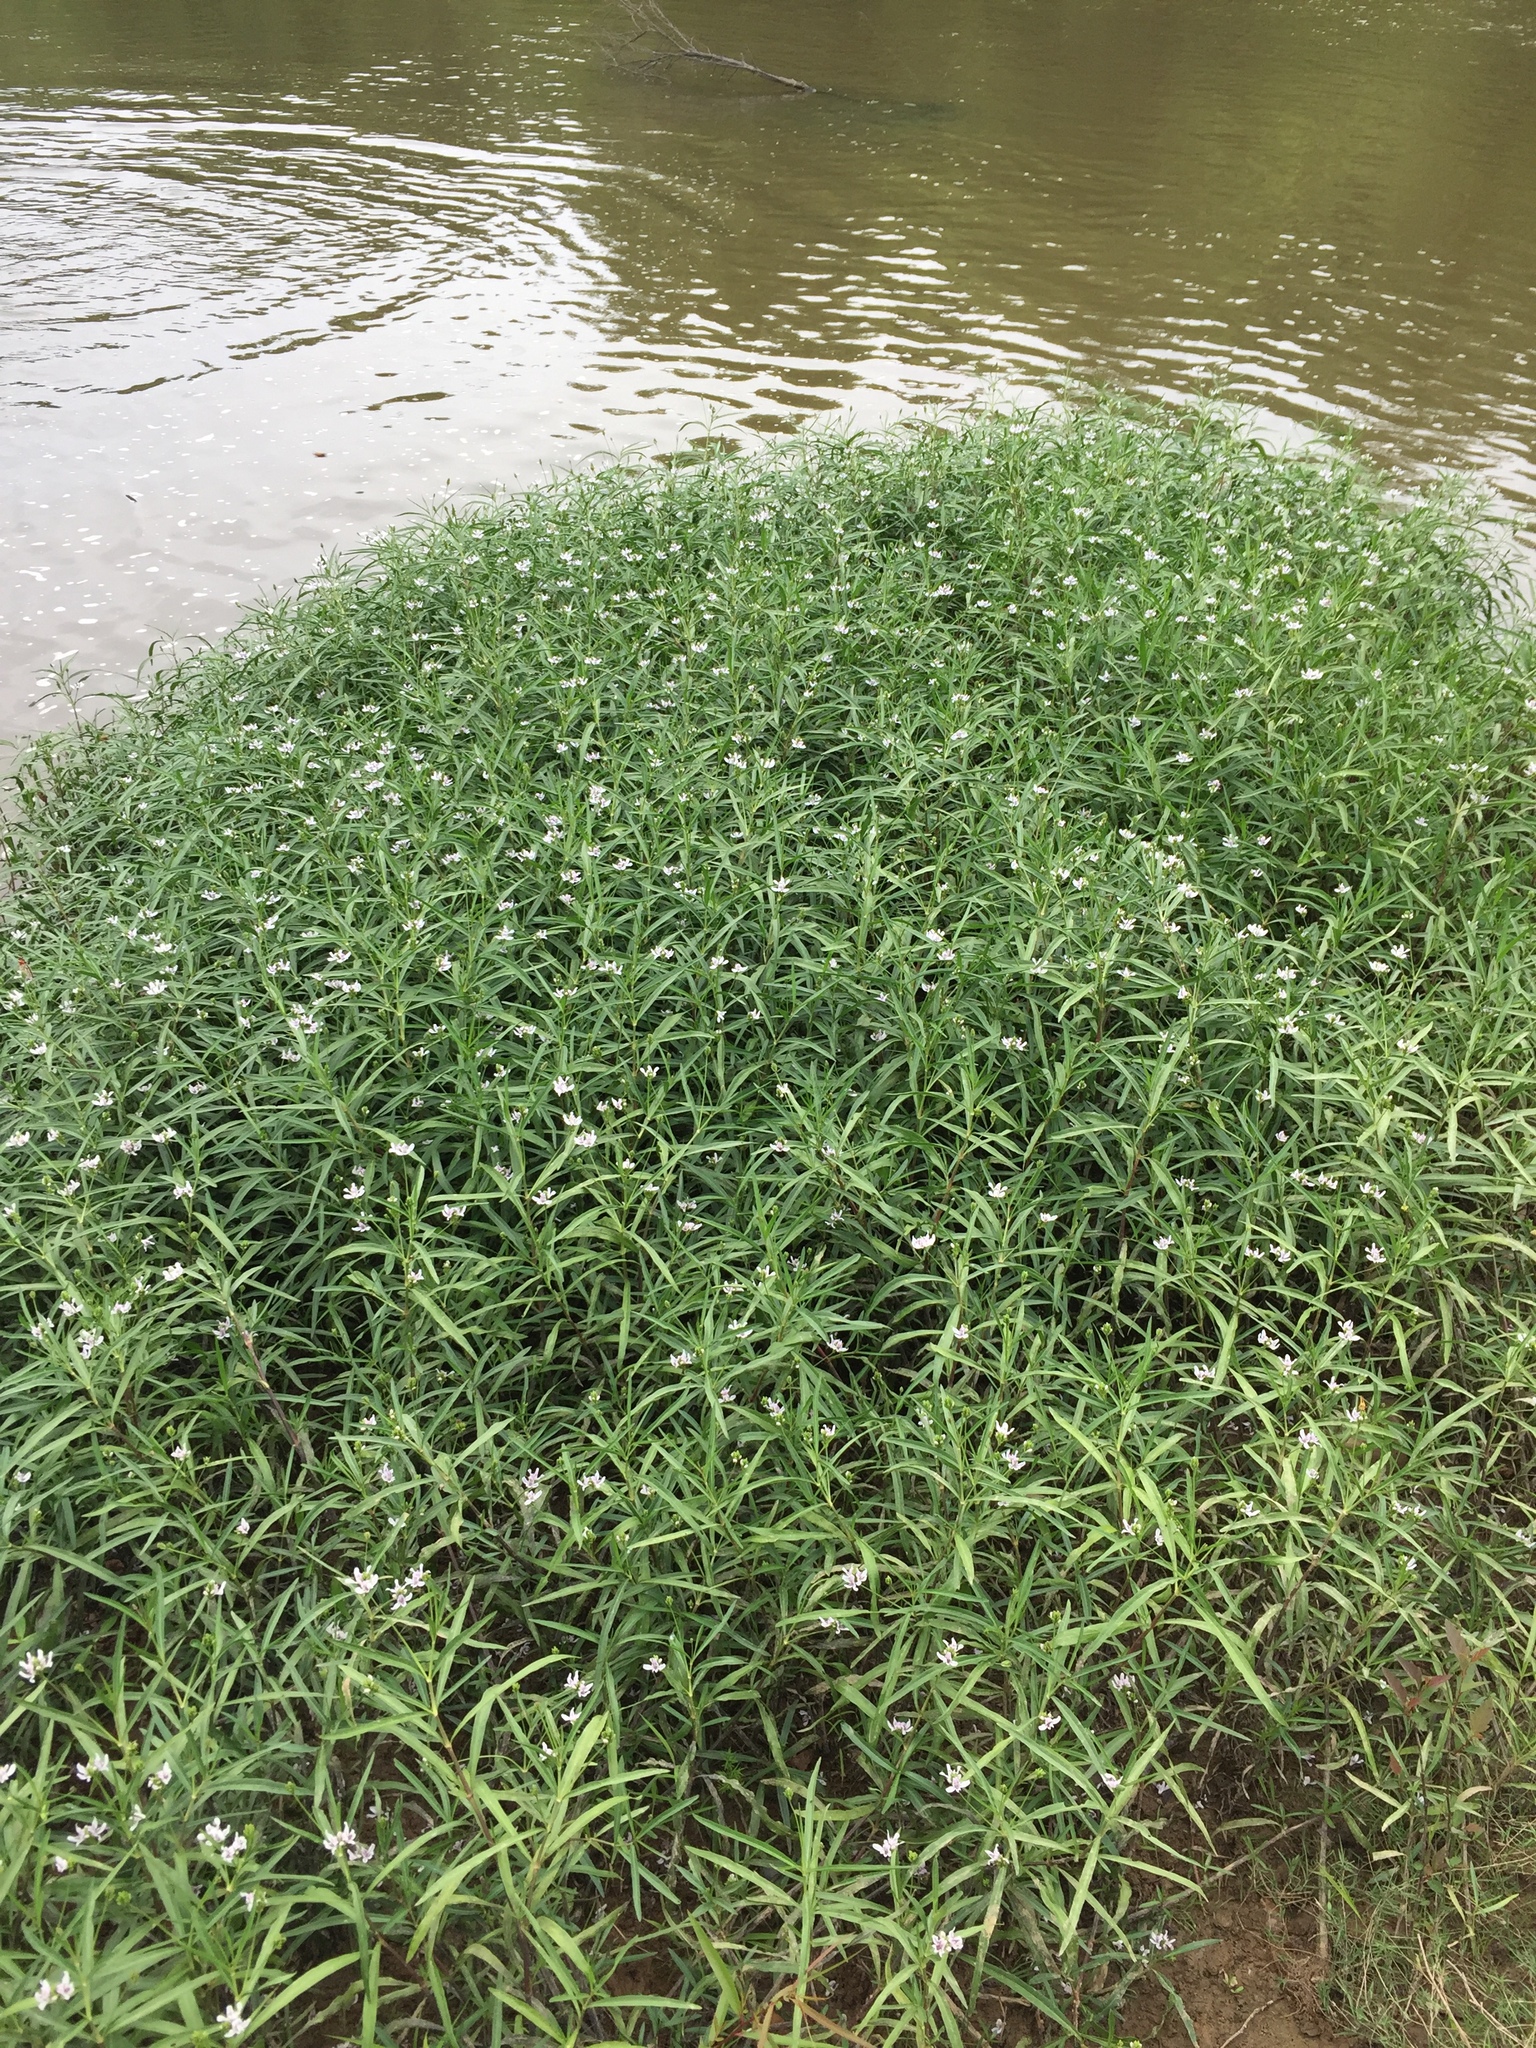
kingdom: Plantae
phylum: Tracheophyta
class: Magnoliopsida
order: Lamiales
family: Acanthaceae
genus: Dianthera
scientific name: Dianthera americana
